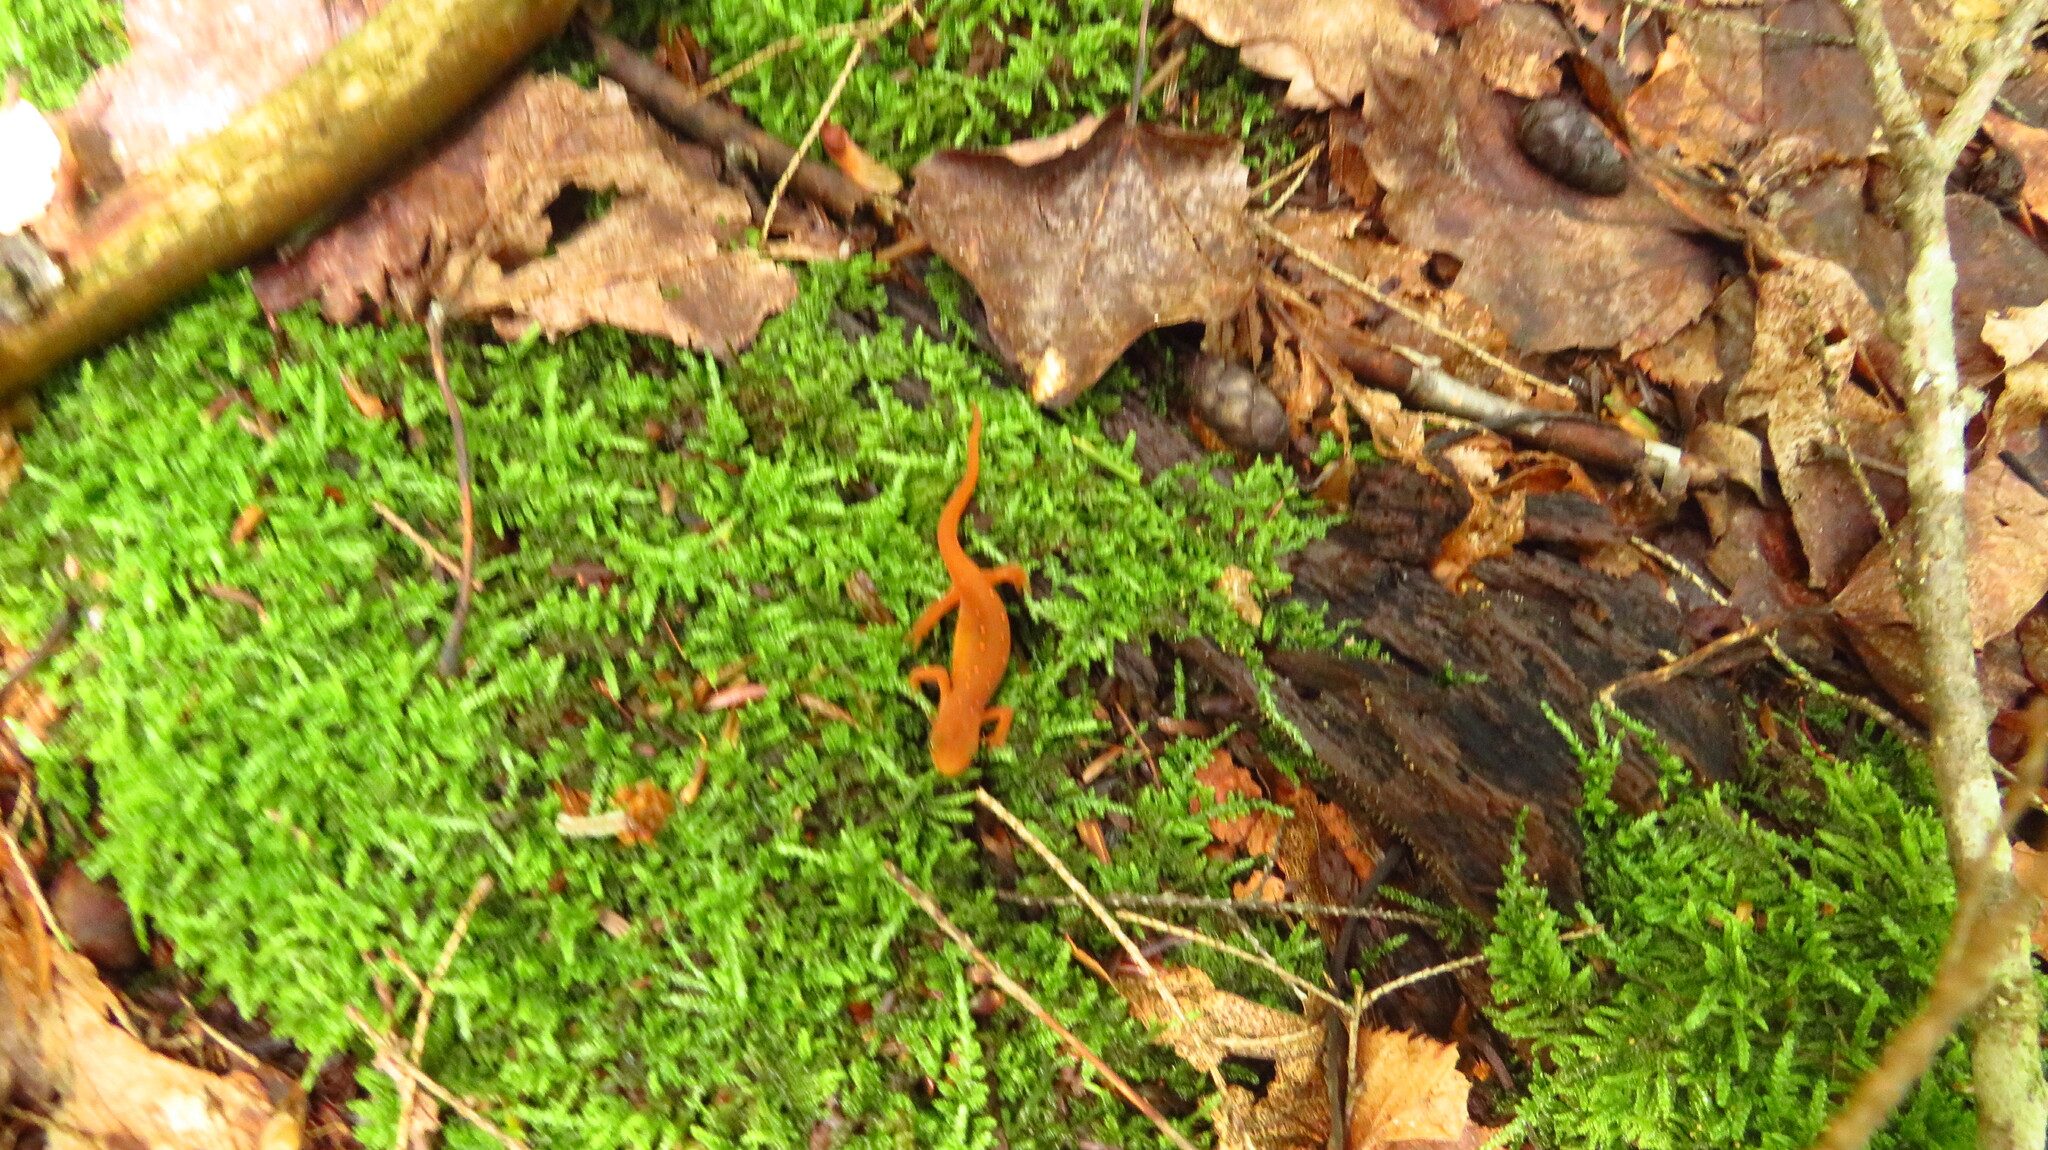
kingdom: Animalia
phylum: Chordata
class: Amphibia
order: Caudata
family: Salamandridae
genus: Notophthalmus
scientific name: Notophthalmus viridescens
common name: Eastern newt
